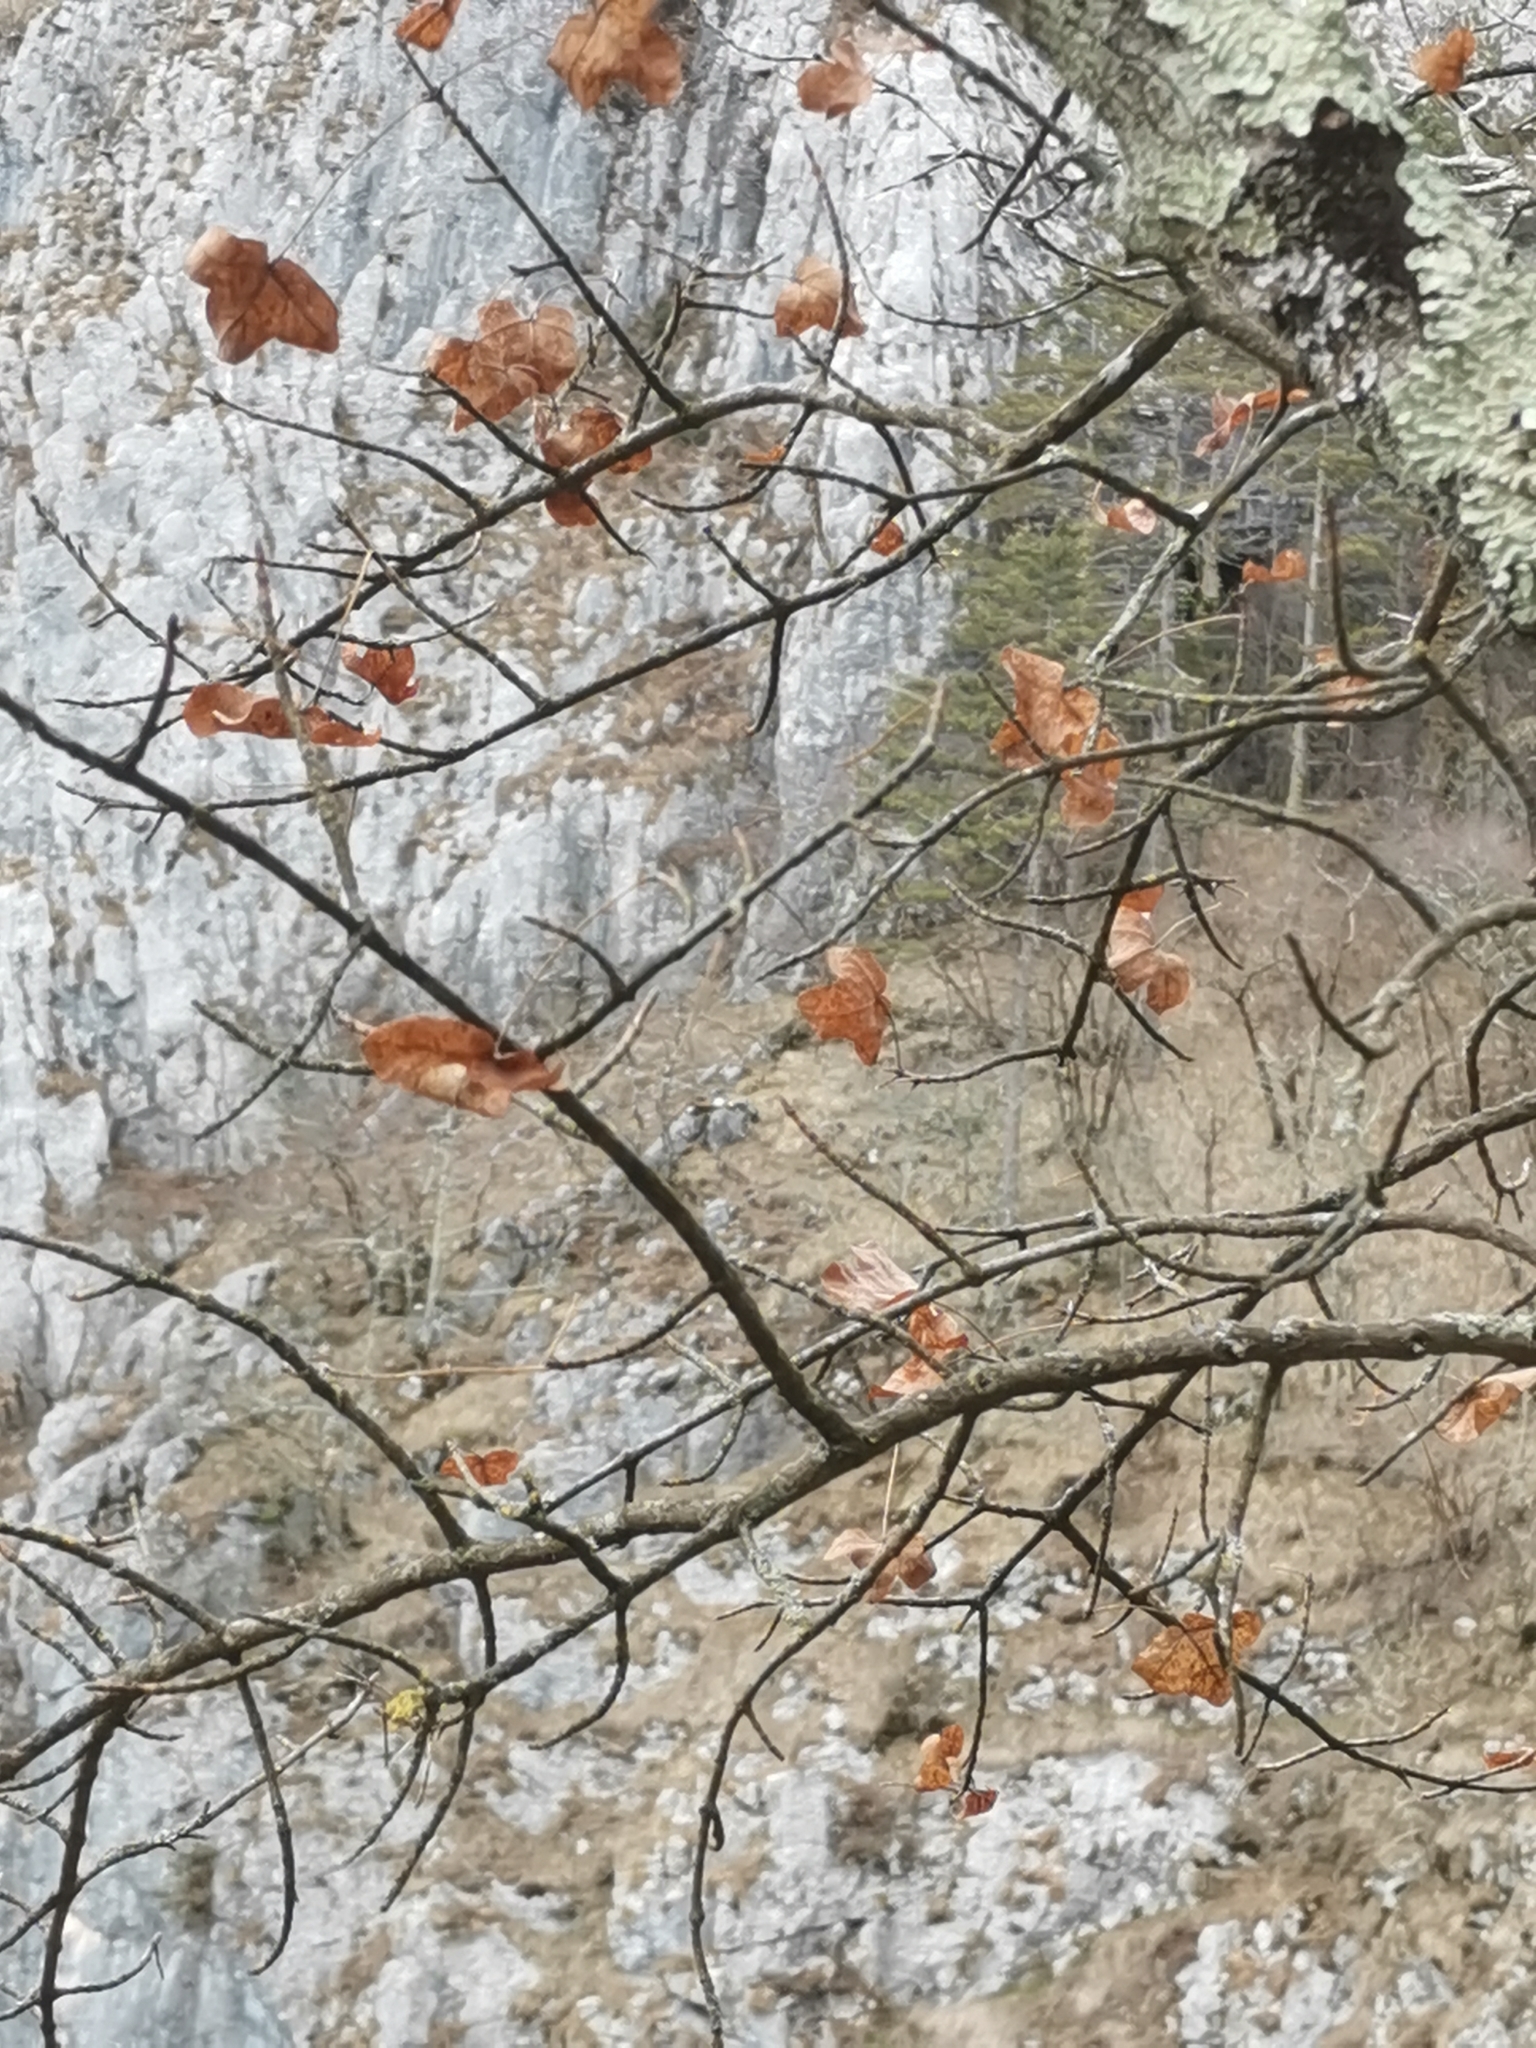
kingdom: Plantae
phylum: Tracheophyta
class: Magnoliopsida
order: Sapindales
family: Sapindaceae
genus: Acer
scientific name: Acer monspessulanum
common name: Montpellier maple
